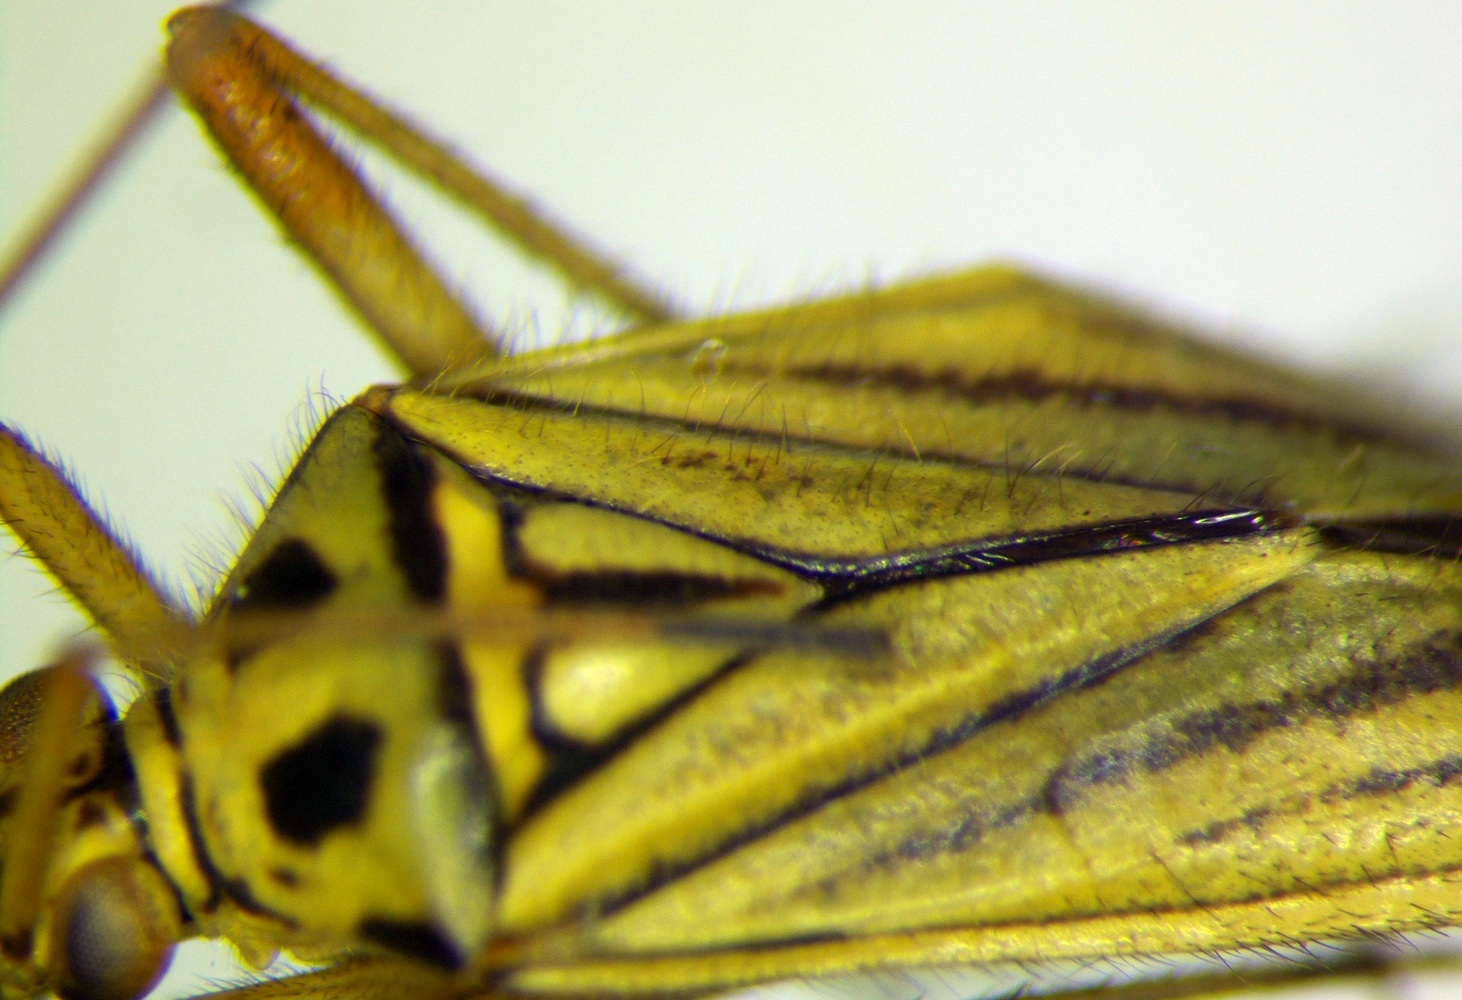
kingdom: Animalia
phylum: Arthropoda
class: Insecta
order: Hemiptera
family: Miridae
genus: Mermitelocerus
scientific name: Mermitelocerus schmidtii
